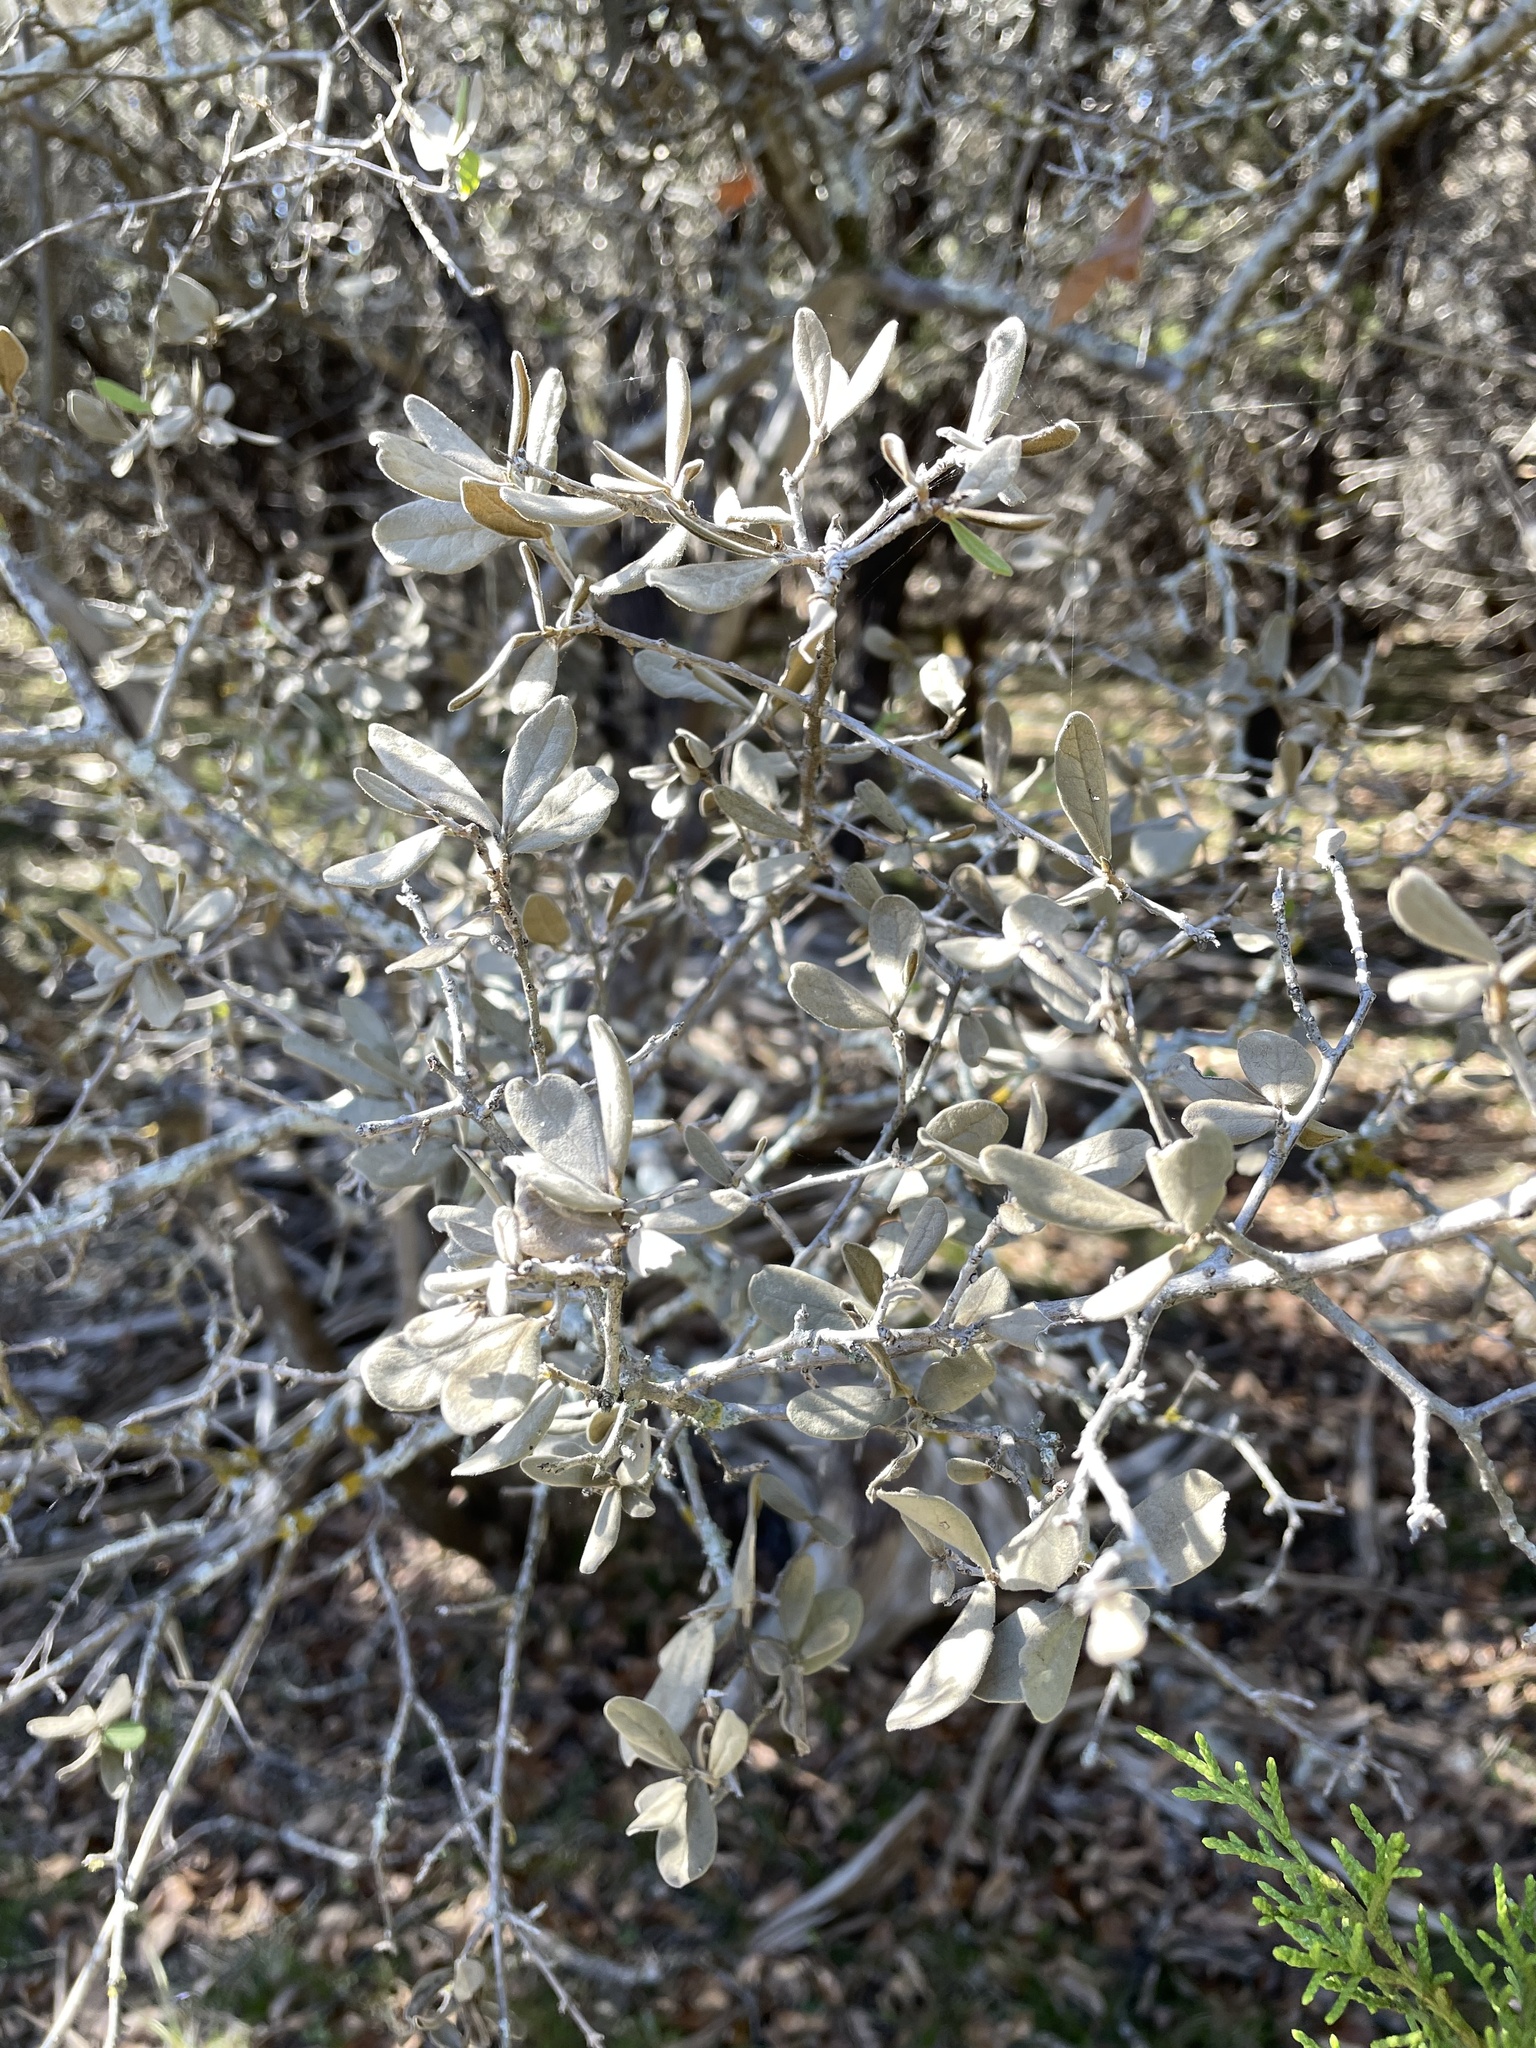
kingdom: Plantae
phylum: Tracheophyta
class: Magnoliopsida
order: Ericales
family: Ebenaceae
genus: Diospyros
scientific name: Diospyros texana
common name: Texas persimmon
